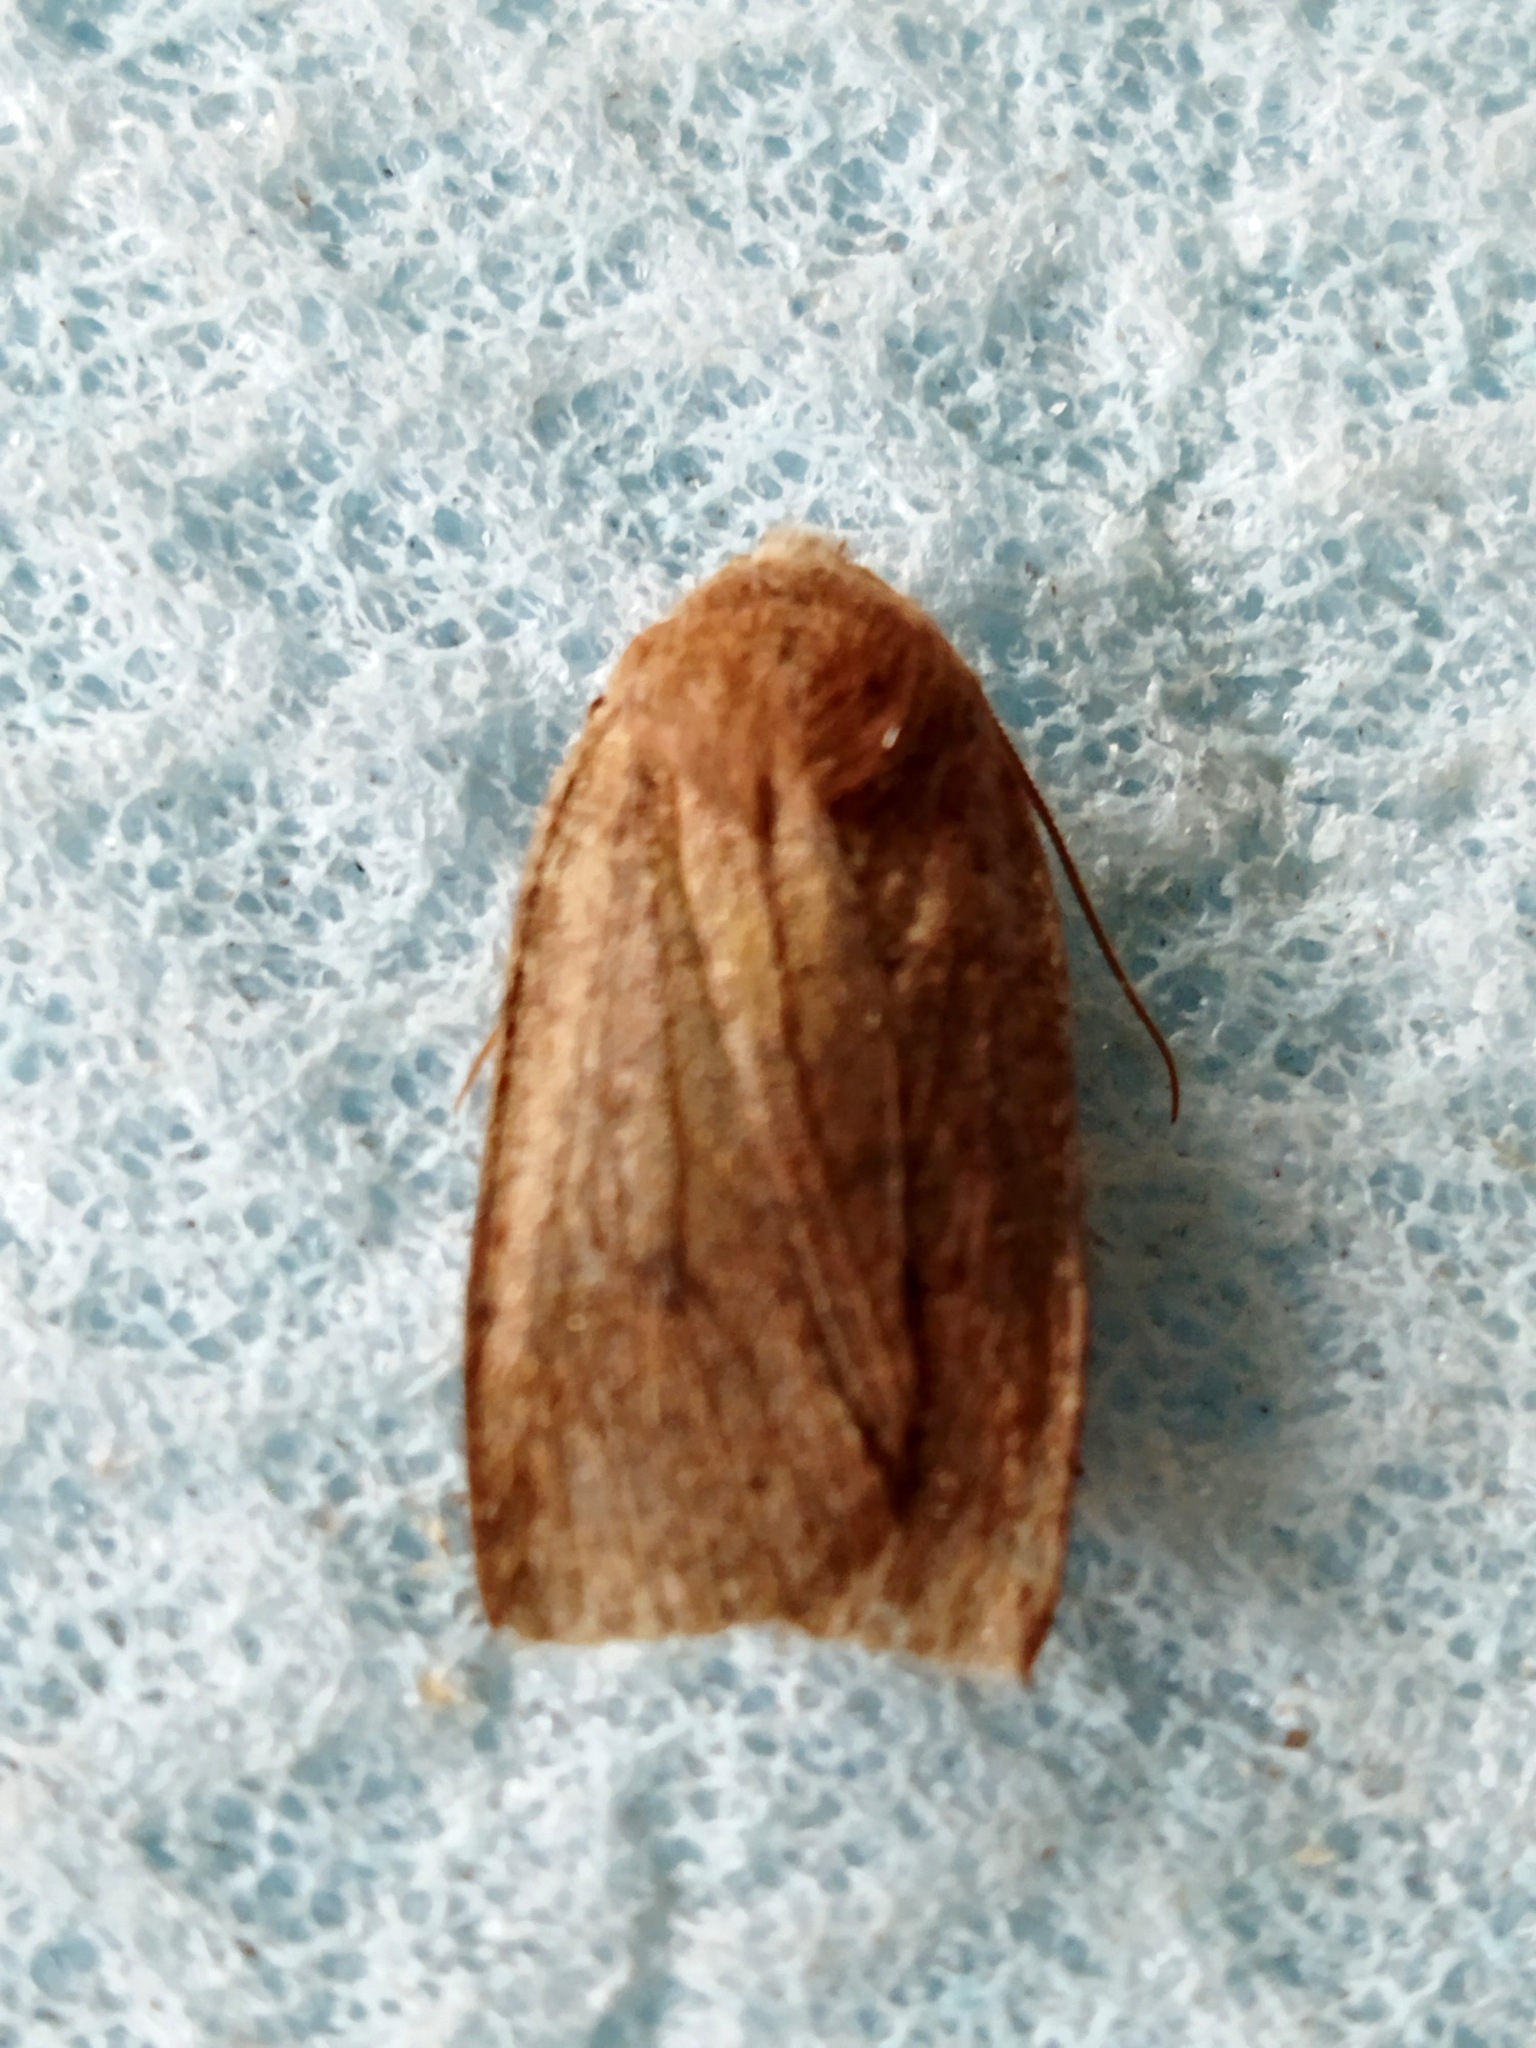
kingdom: Animalia
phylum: Arthropoda
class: Insecta
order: Lepidoptera
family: Noctuidae
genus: Conistra
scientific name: Conistra vaccinii
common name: Chestnut
